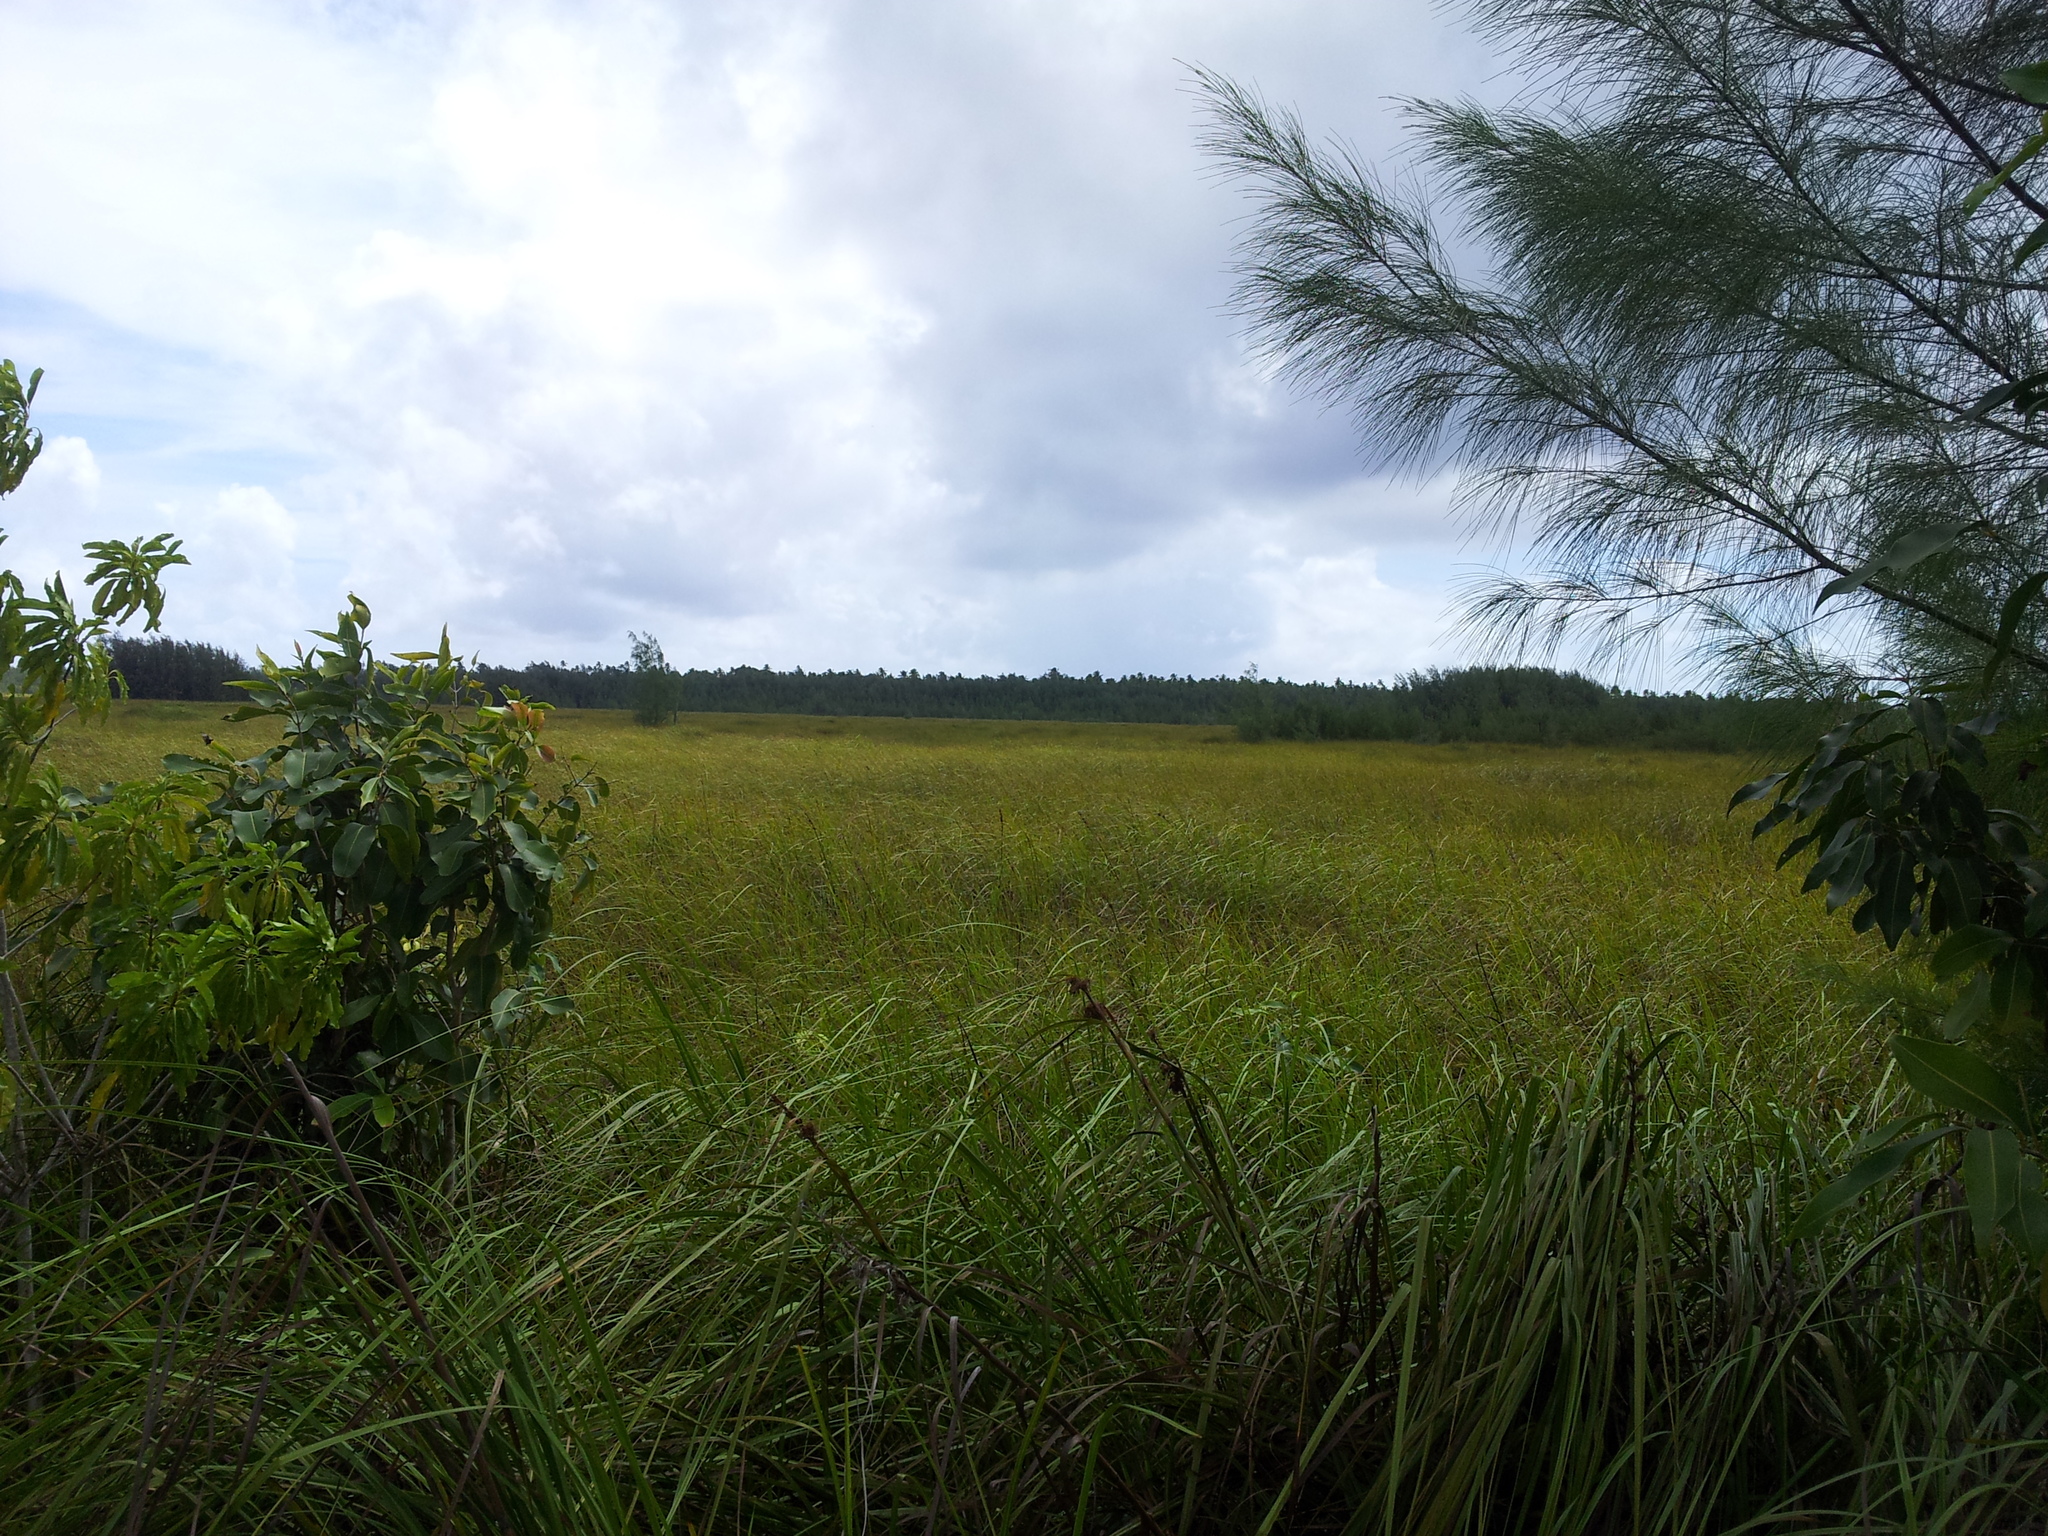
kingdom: Plantae
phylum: Tracheophyta
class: Liliopsida
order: Poales
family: Cyperaceae
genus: Cladium
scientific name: Cladium mariscus
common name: Great fen-sedge
